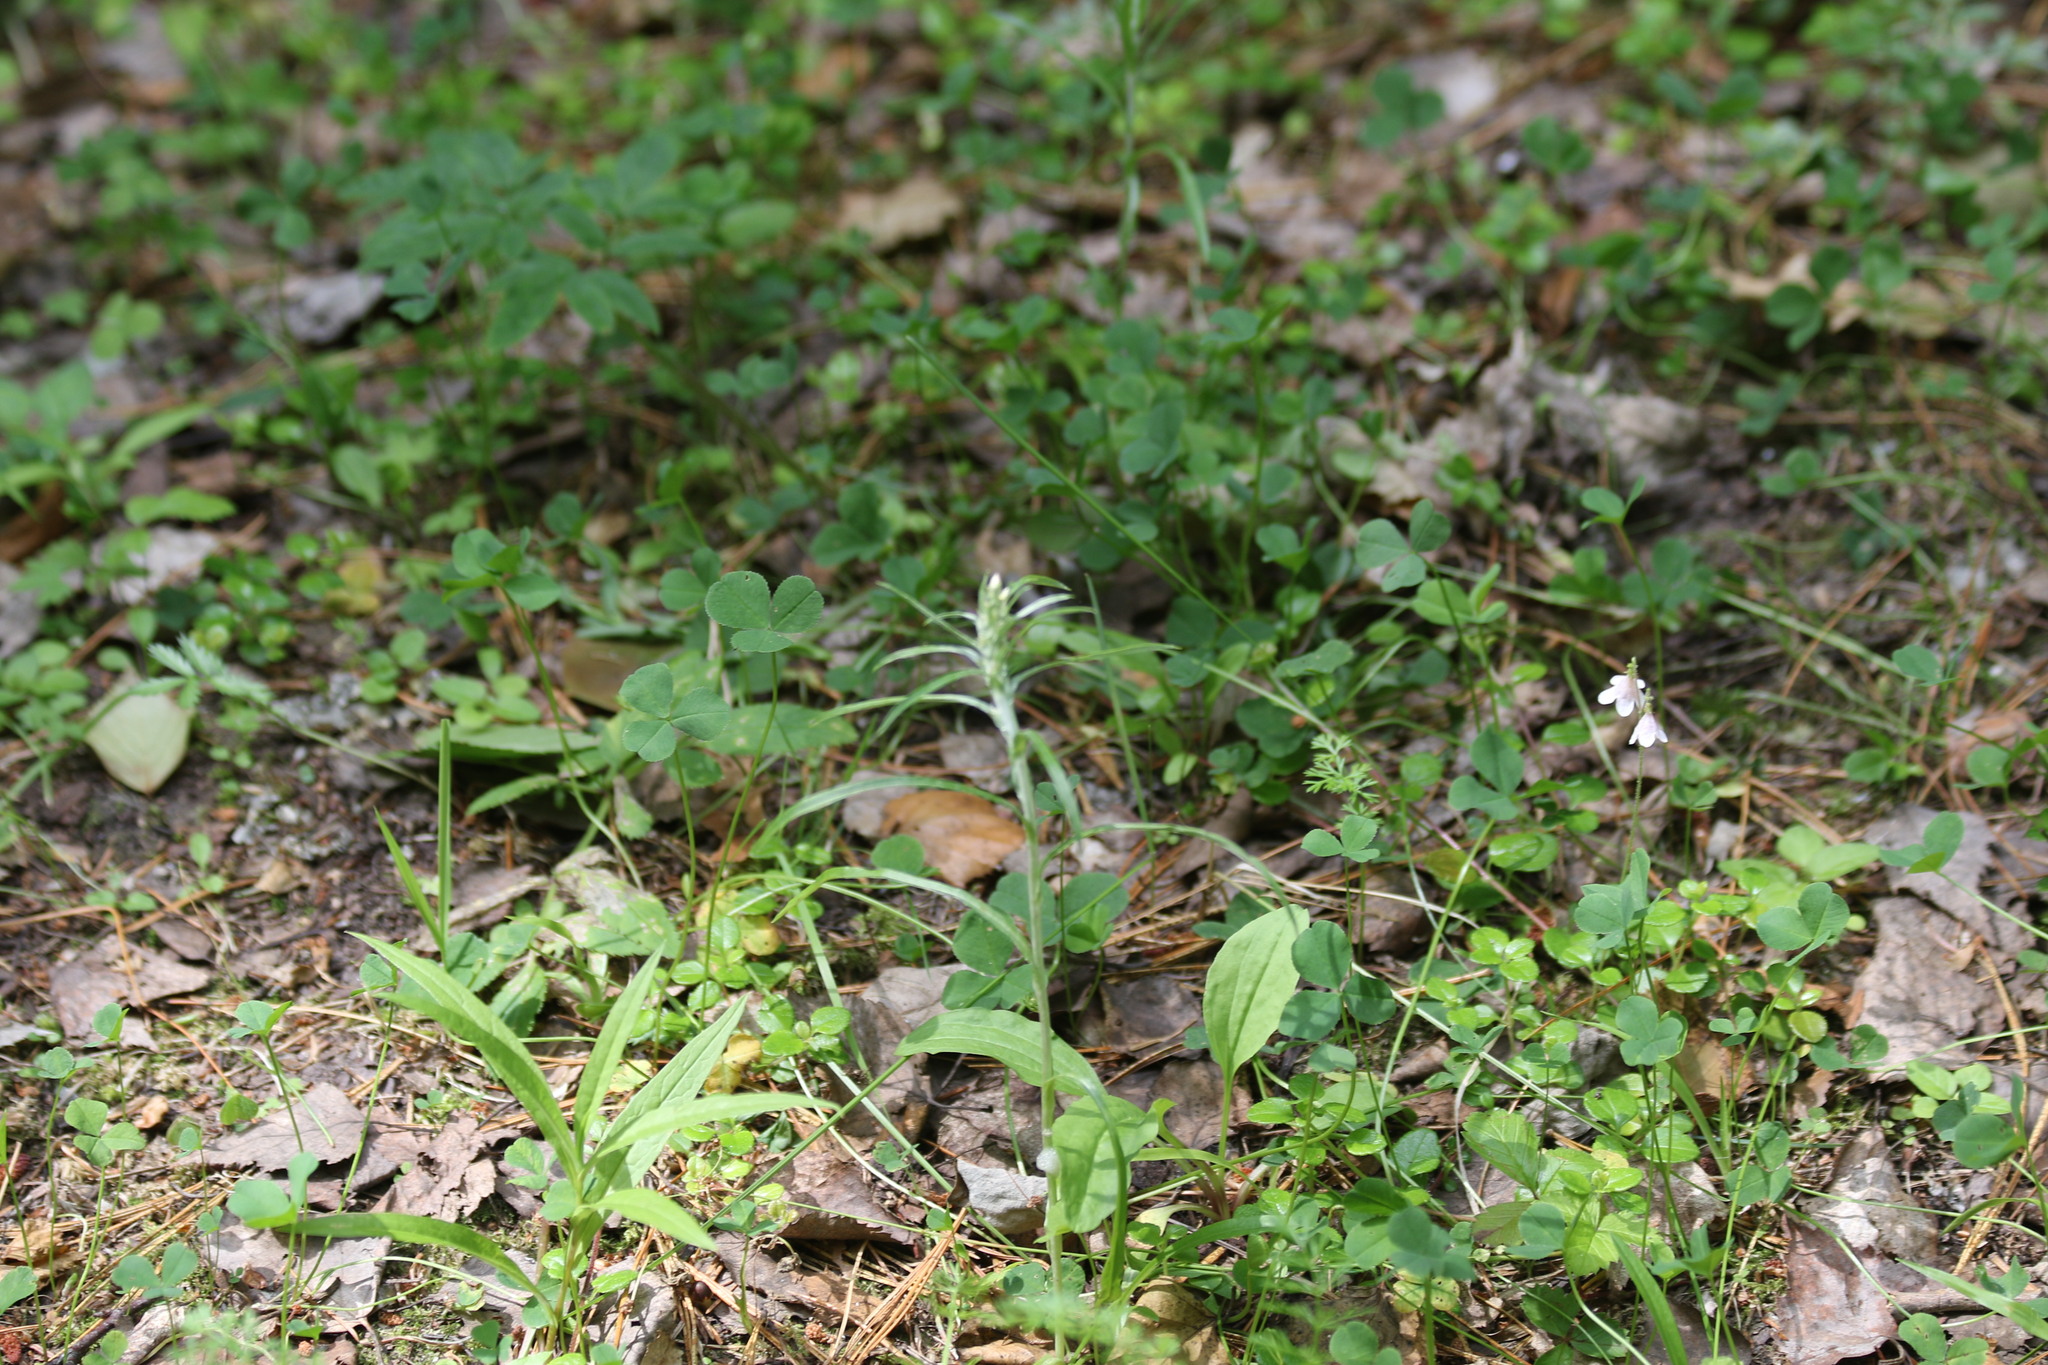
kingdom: Plantae
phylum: Tracheophyta
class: Magnoliopsida
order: Asterales
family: Asteraceae
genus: Omalotheca
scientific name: Omalotheca sylvatica
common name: Heath cudweed
